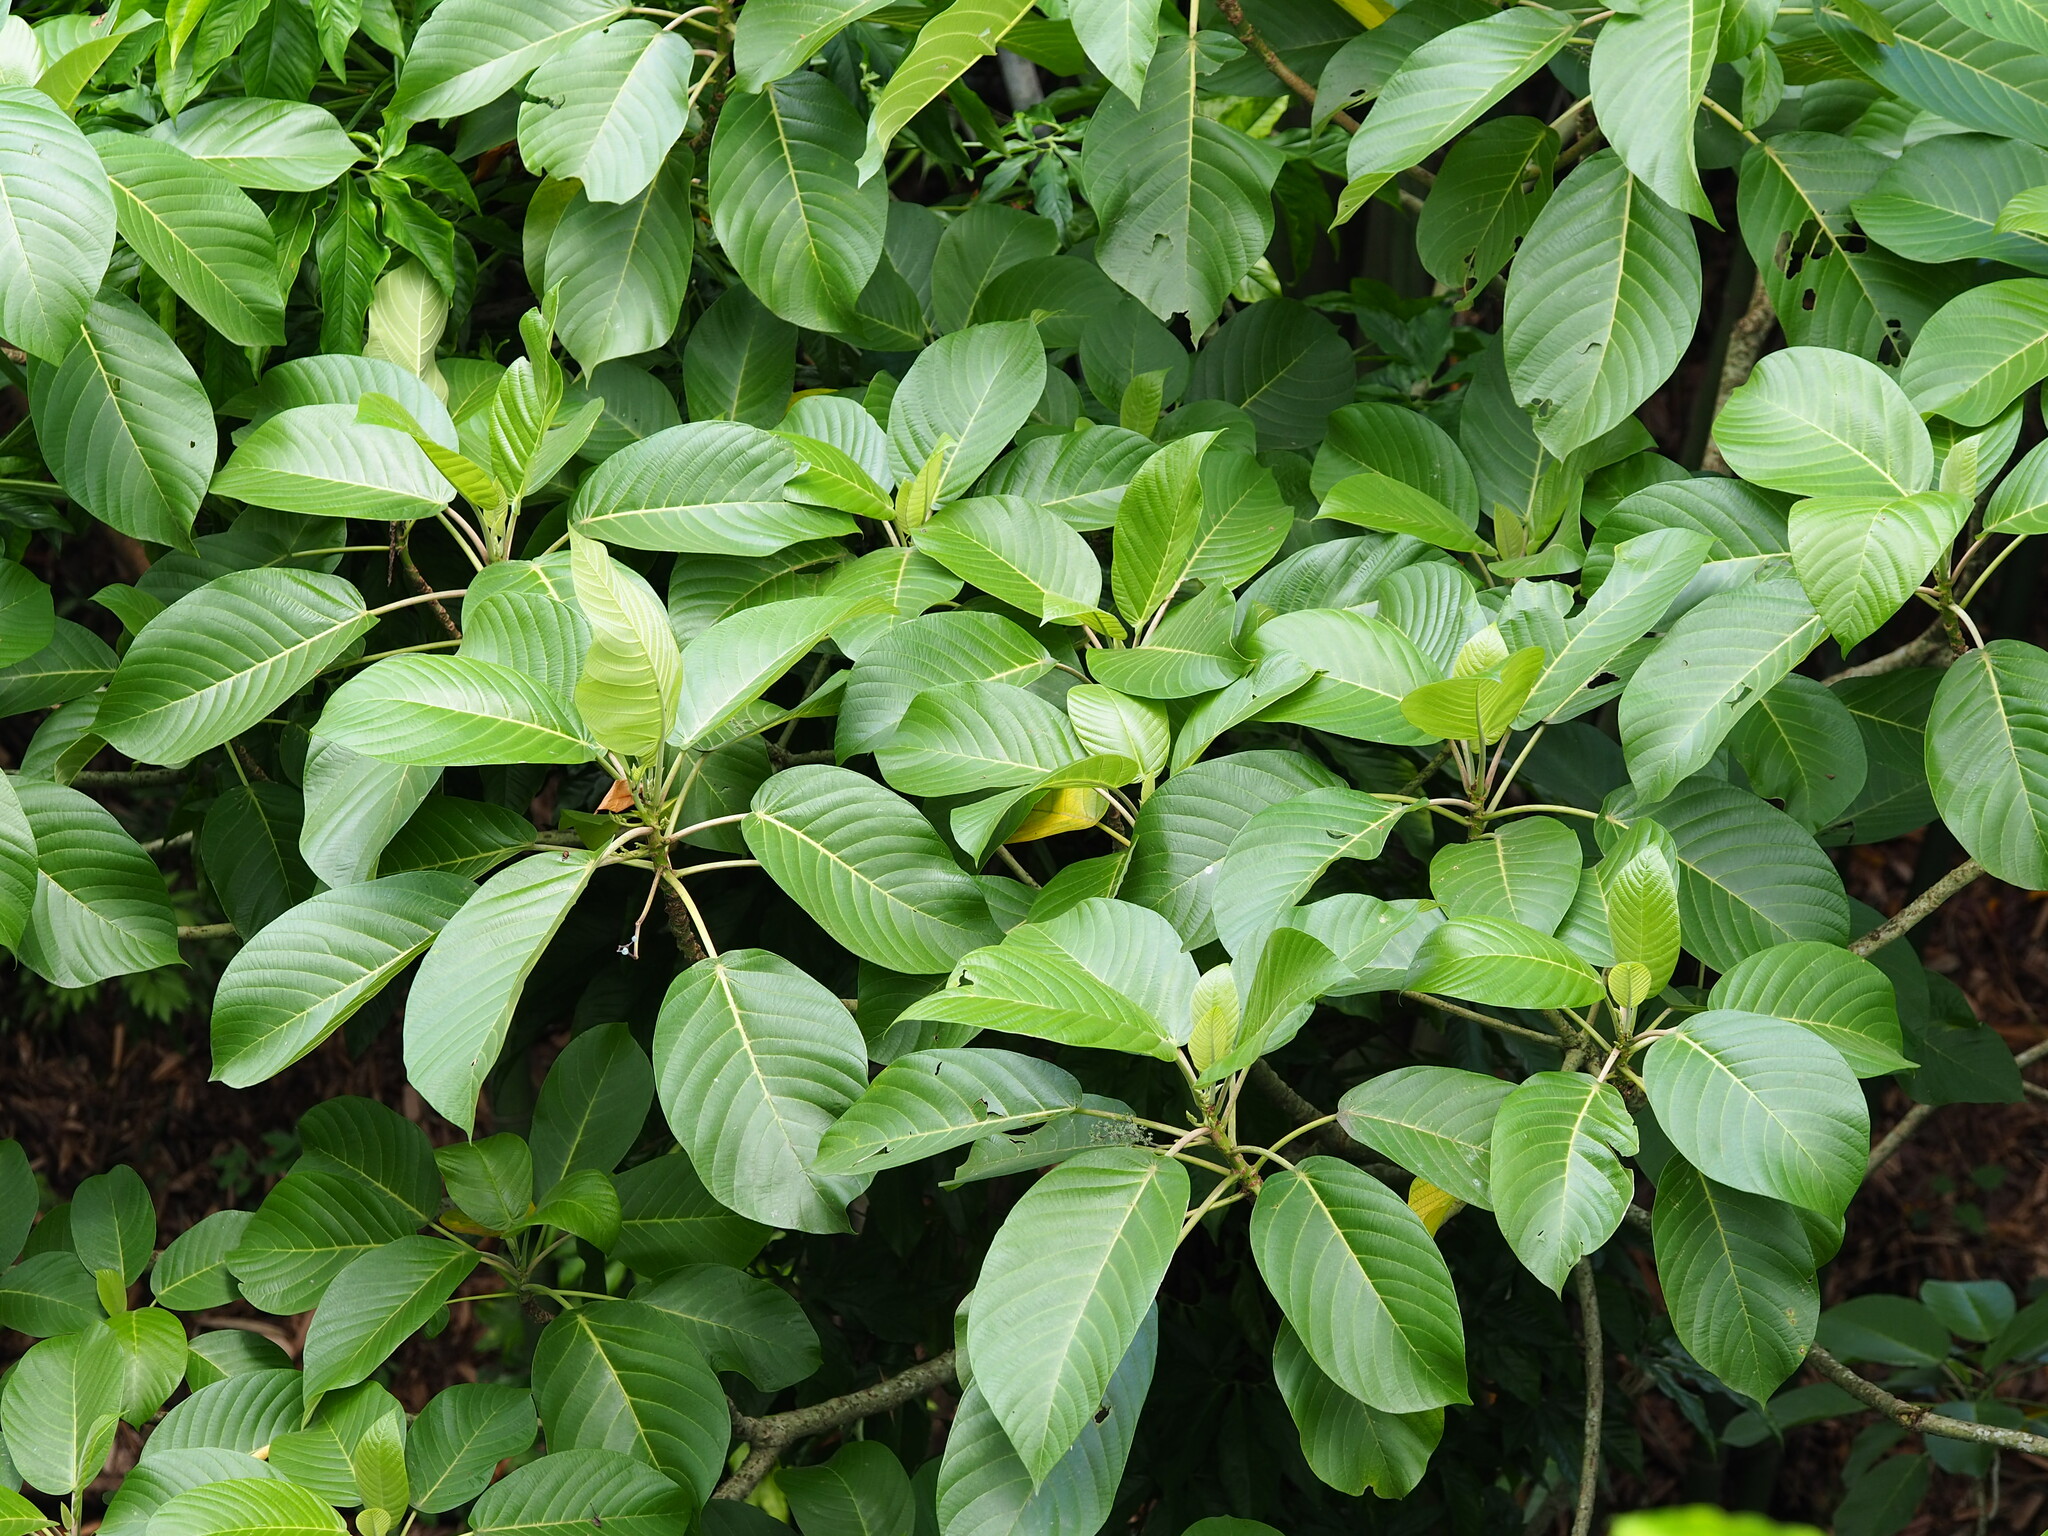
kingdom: Plantae
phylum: Tracheophyta
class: Magnoliopsida
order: Rosales
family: Urticaceae
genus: Dendrocnide
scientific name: Dendrocnide meyeniana
